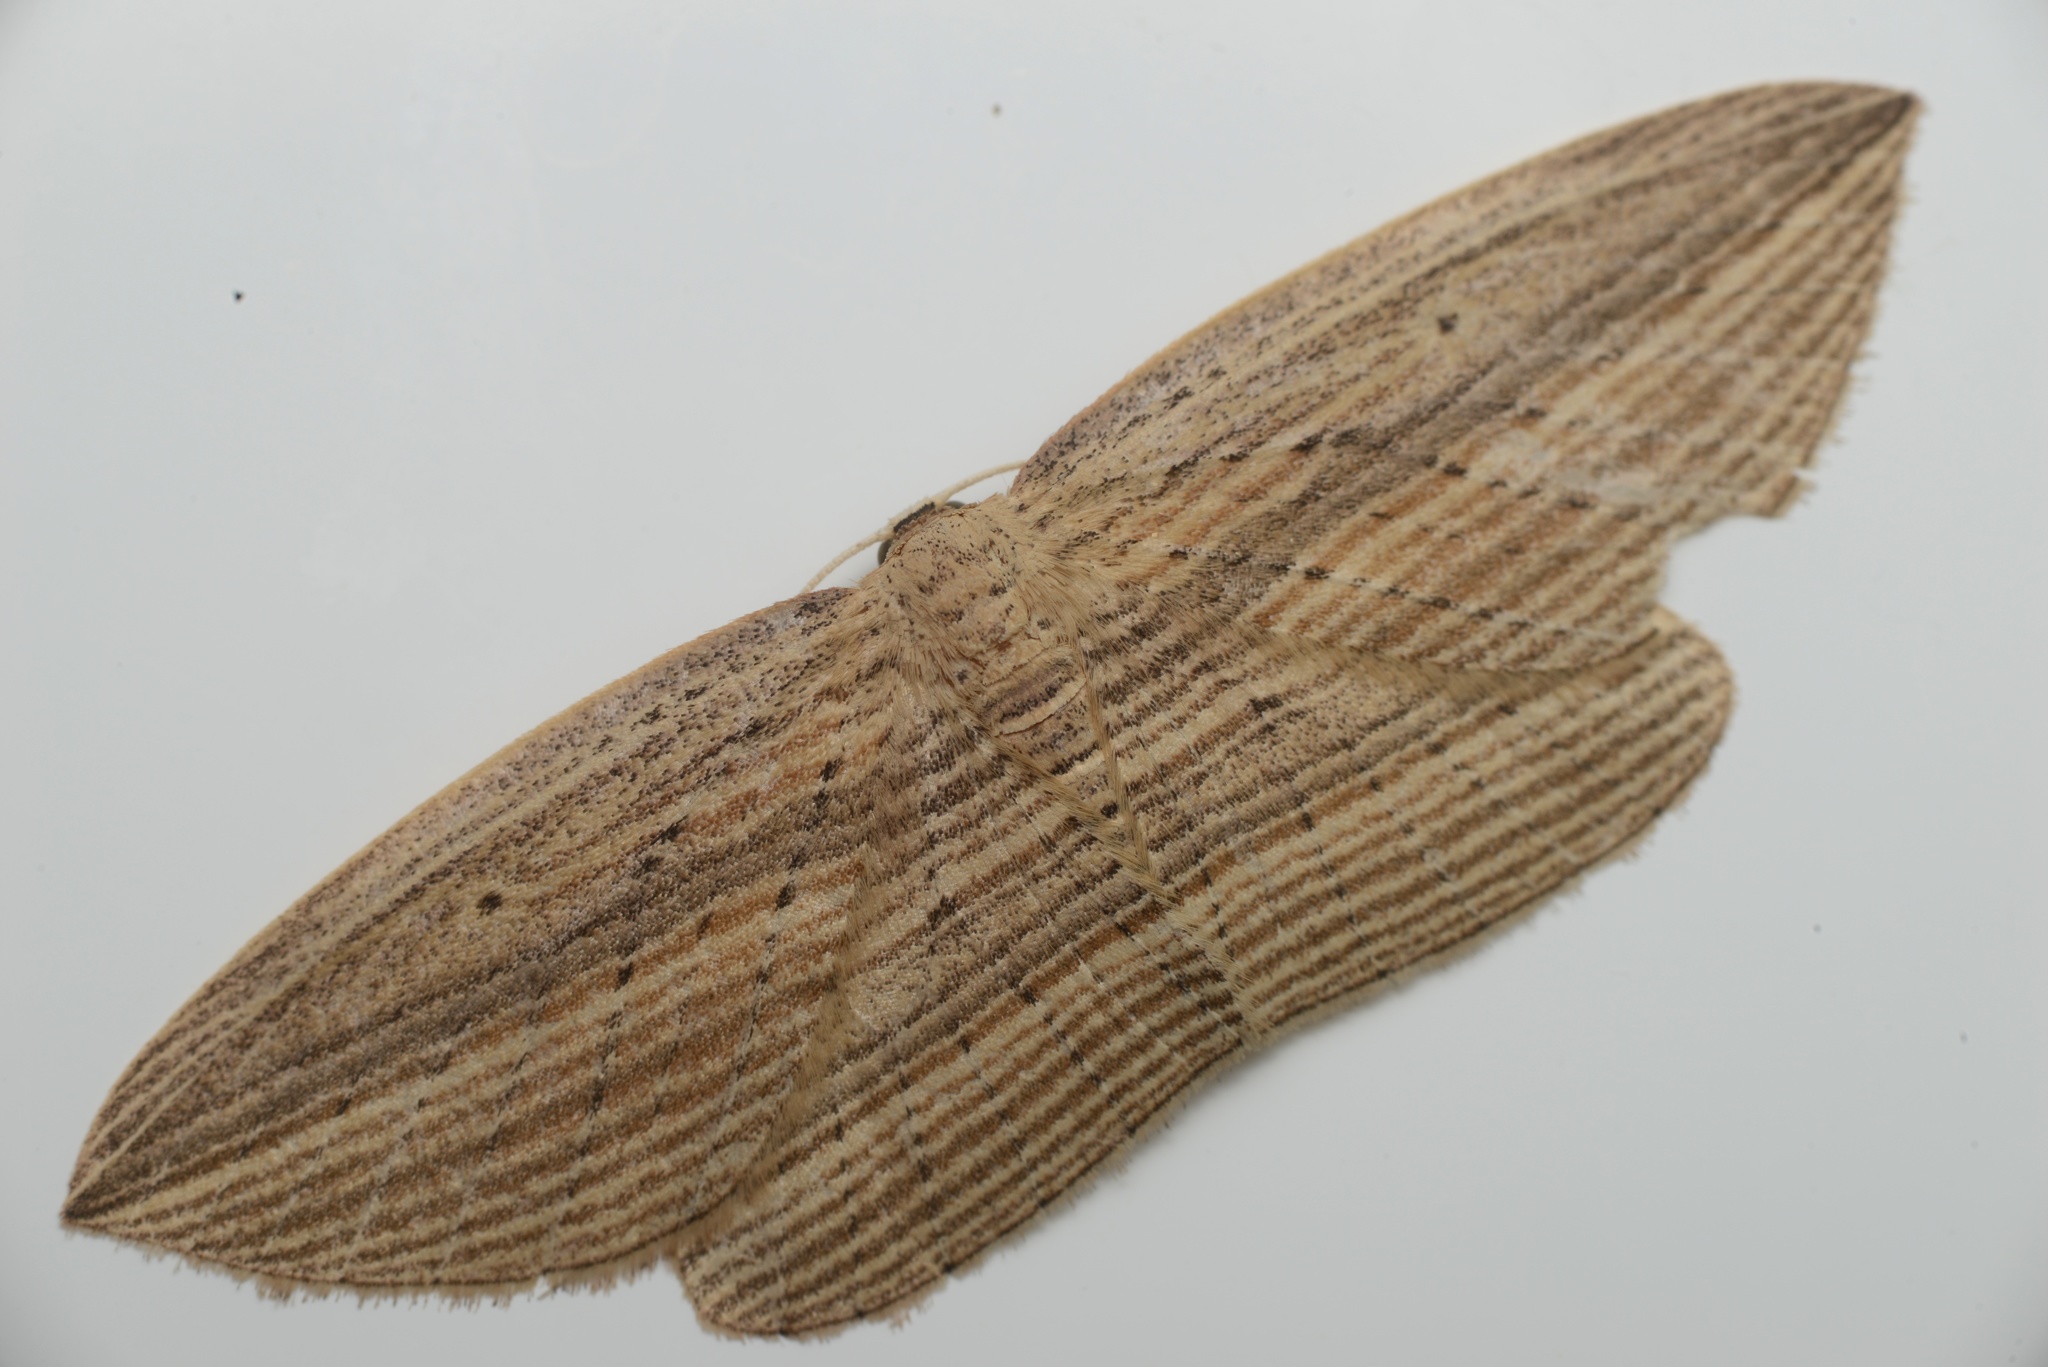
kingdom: Animalia
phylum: Arthropoda
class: Insecta
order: Lepidoptera
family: Geometridae
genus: Epiphryne
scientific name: Epiphryne verriculata
